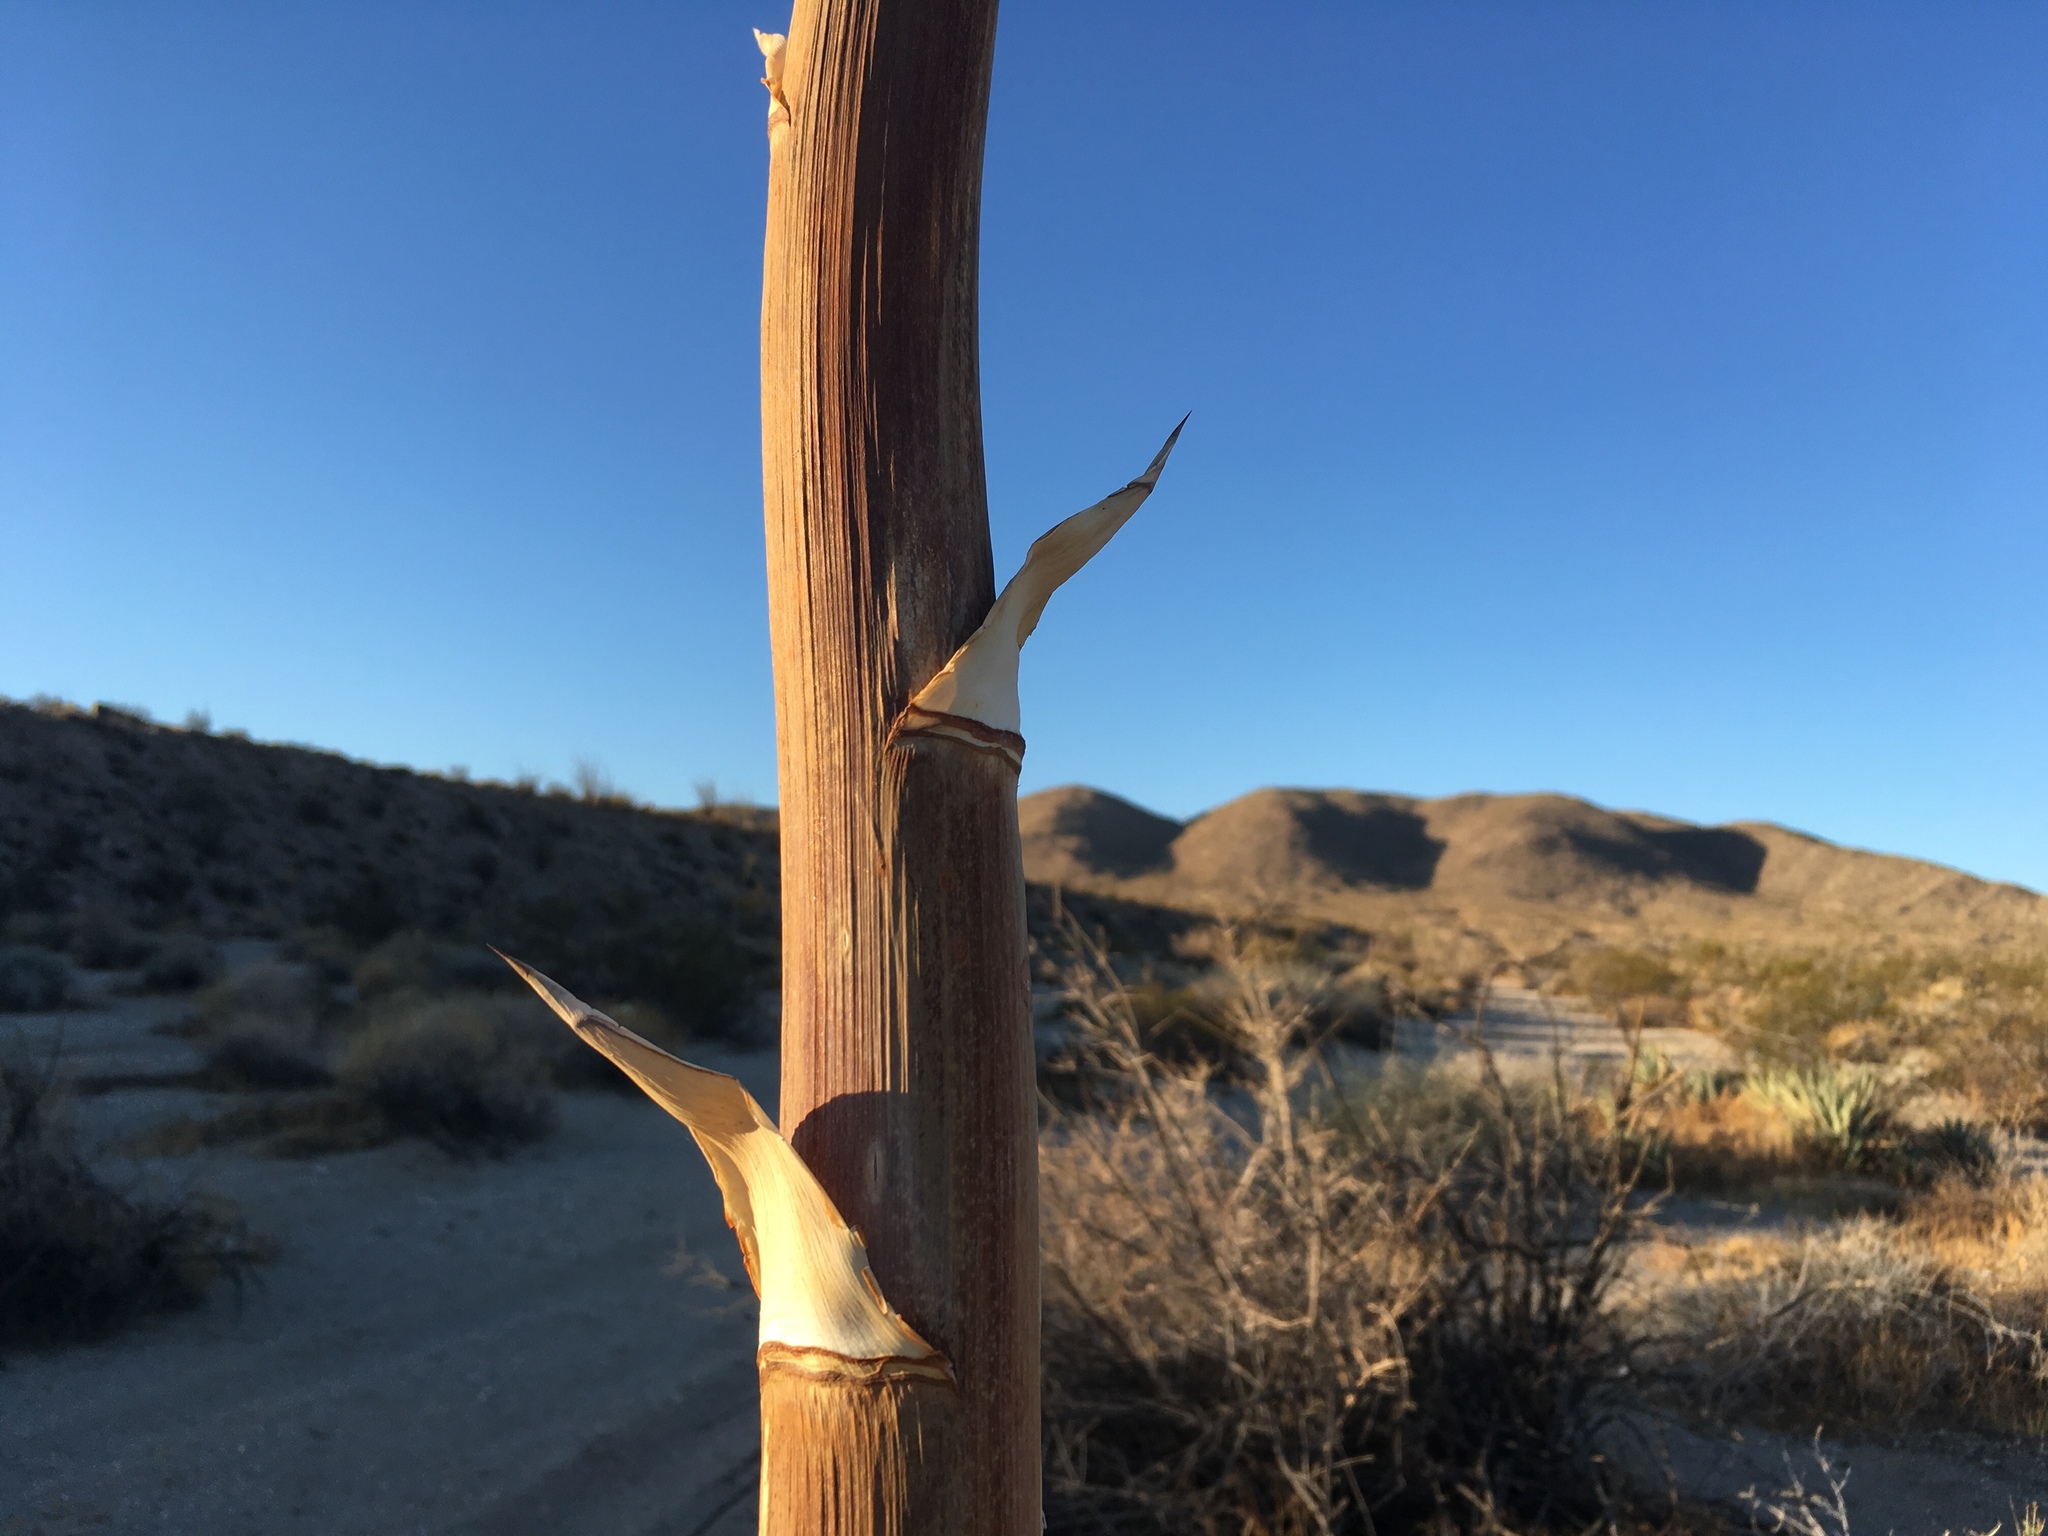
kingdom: Plantae
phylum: Tracheophyta
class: Liliopsida
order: Asparagales
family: Asparagaceae
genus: Agave
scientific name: Agave deserti
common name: Desert agave
